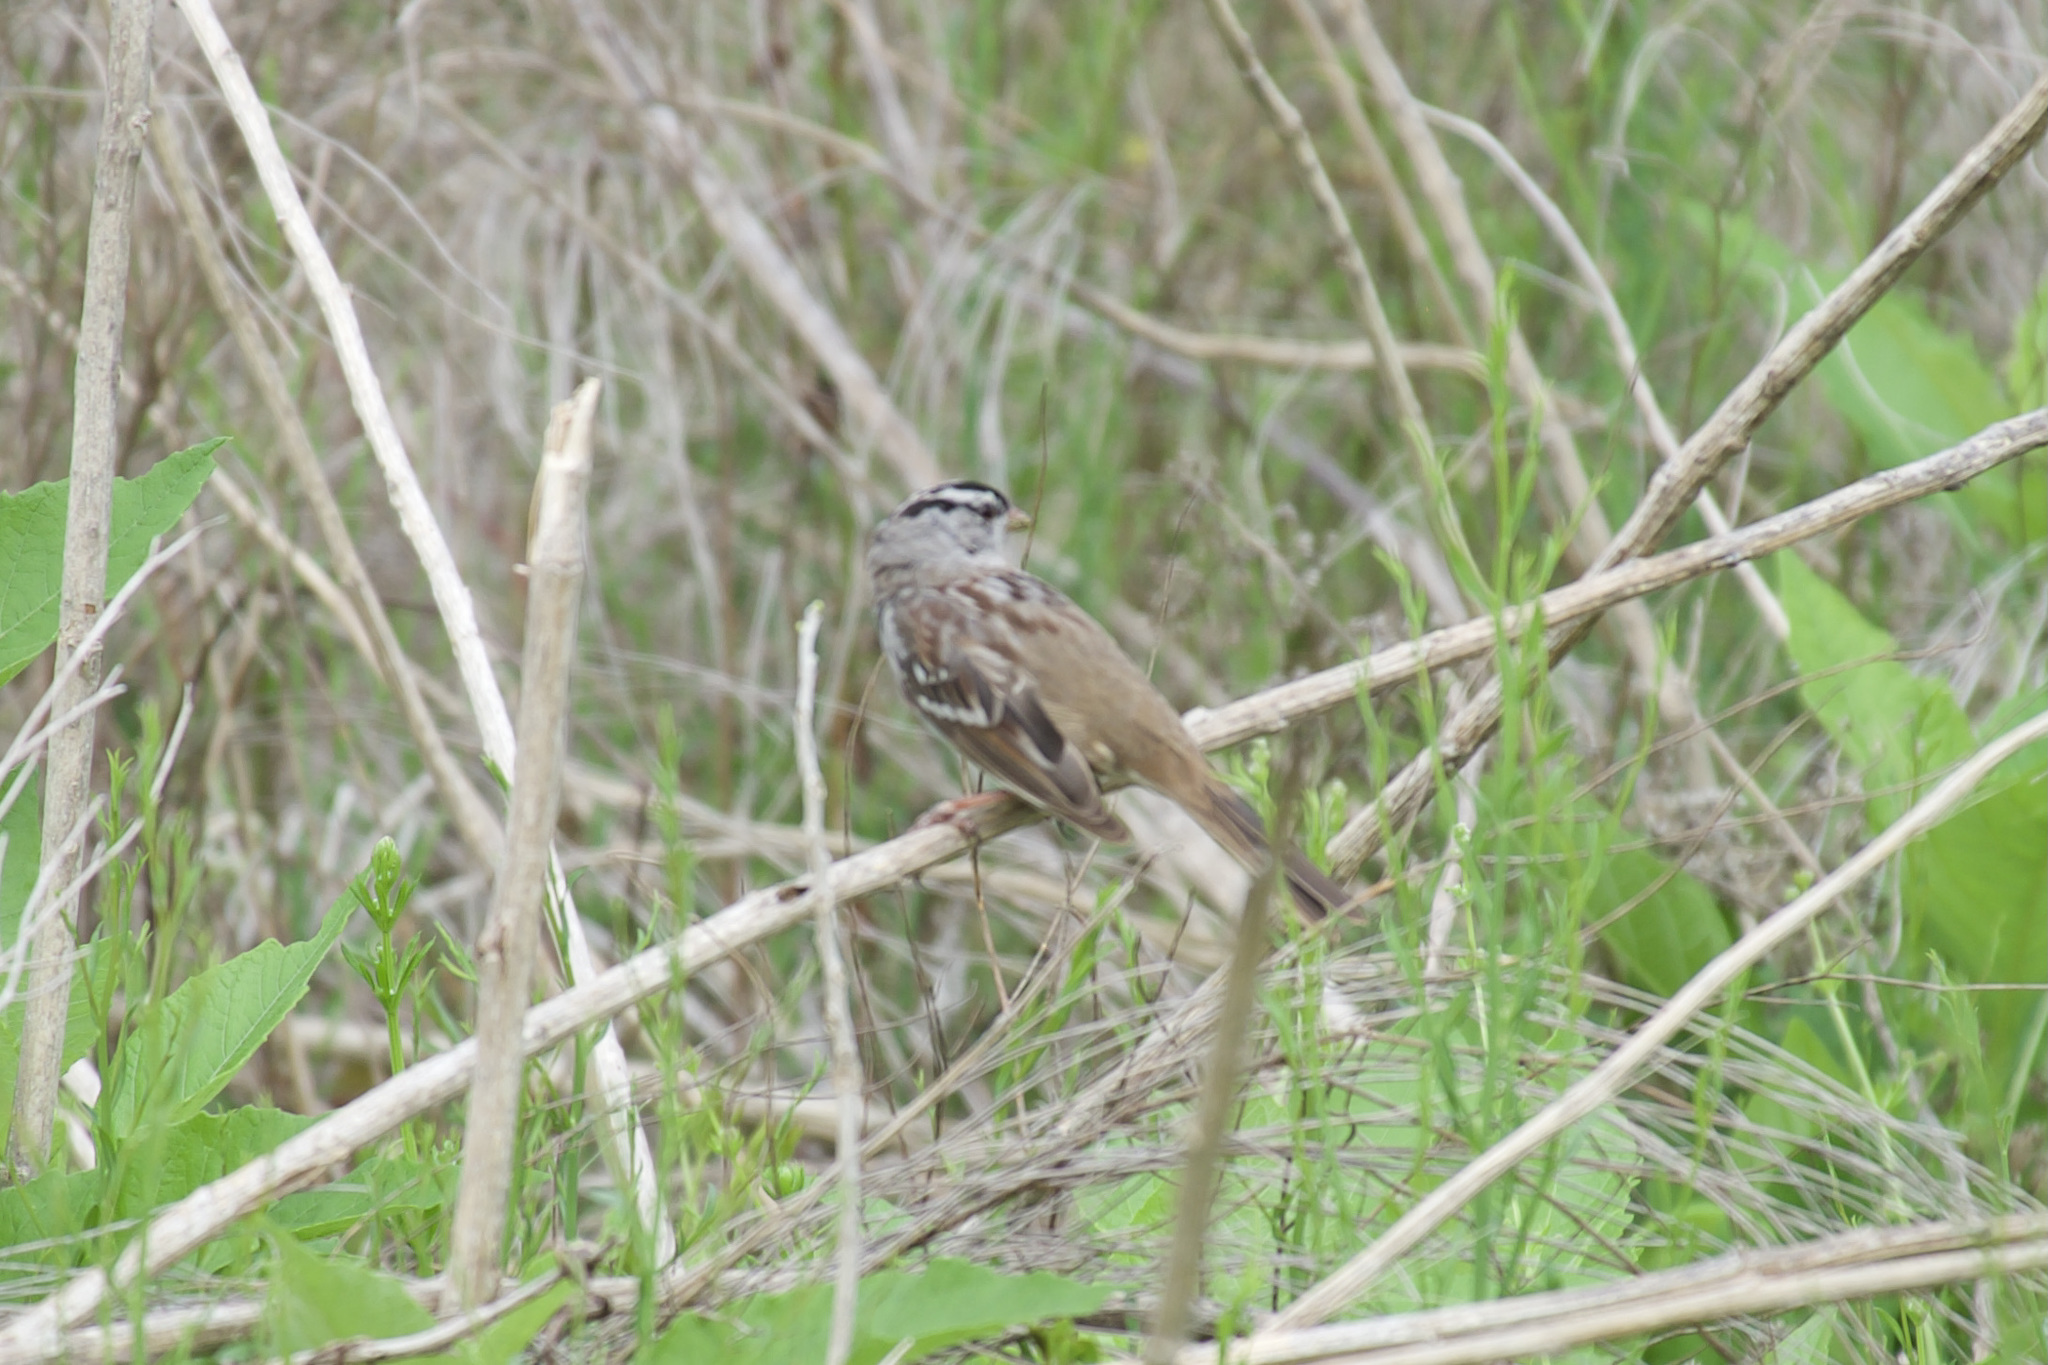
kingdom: Animalia
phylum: Chordata
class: Aves
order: Passeriformes
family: Passerellidae
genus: Zonotrichia
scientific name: Zonotrichia leucophrys
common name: White-crowned sparrow
